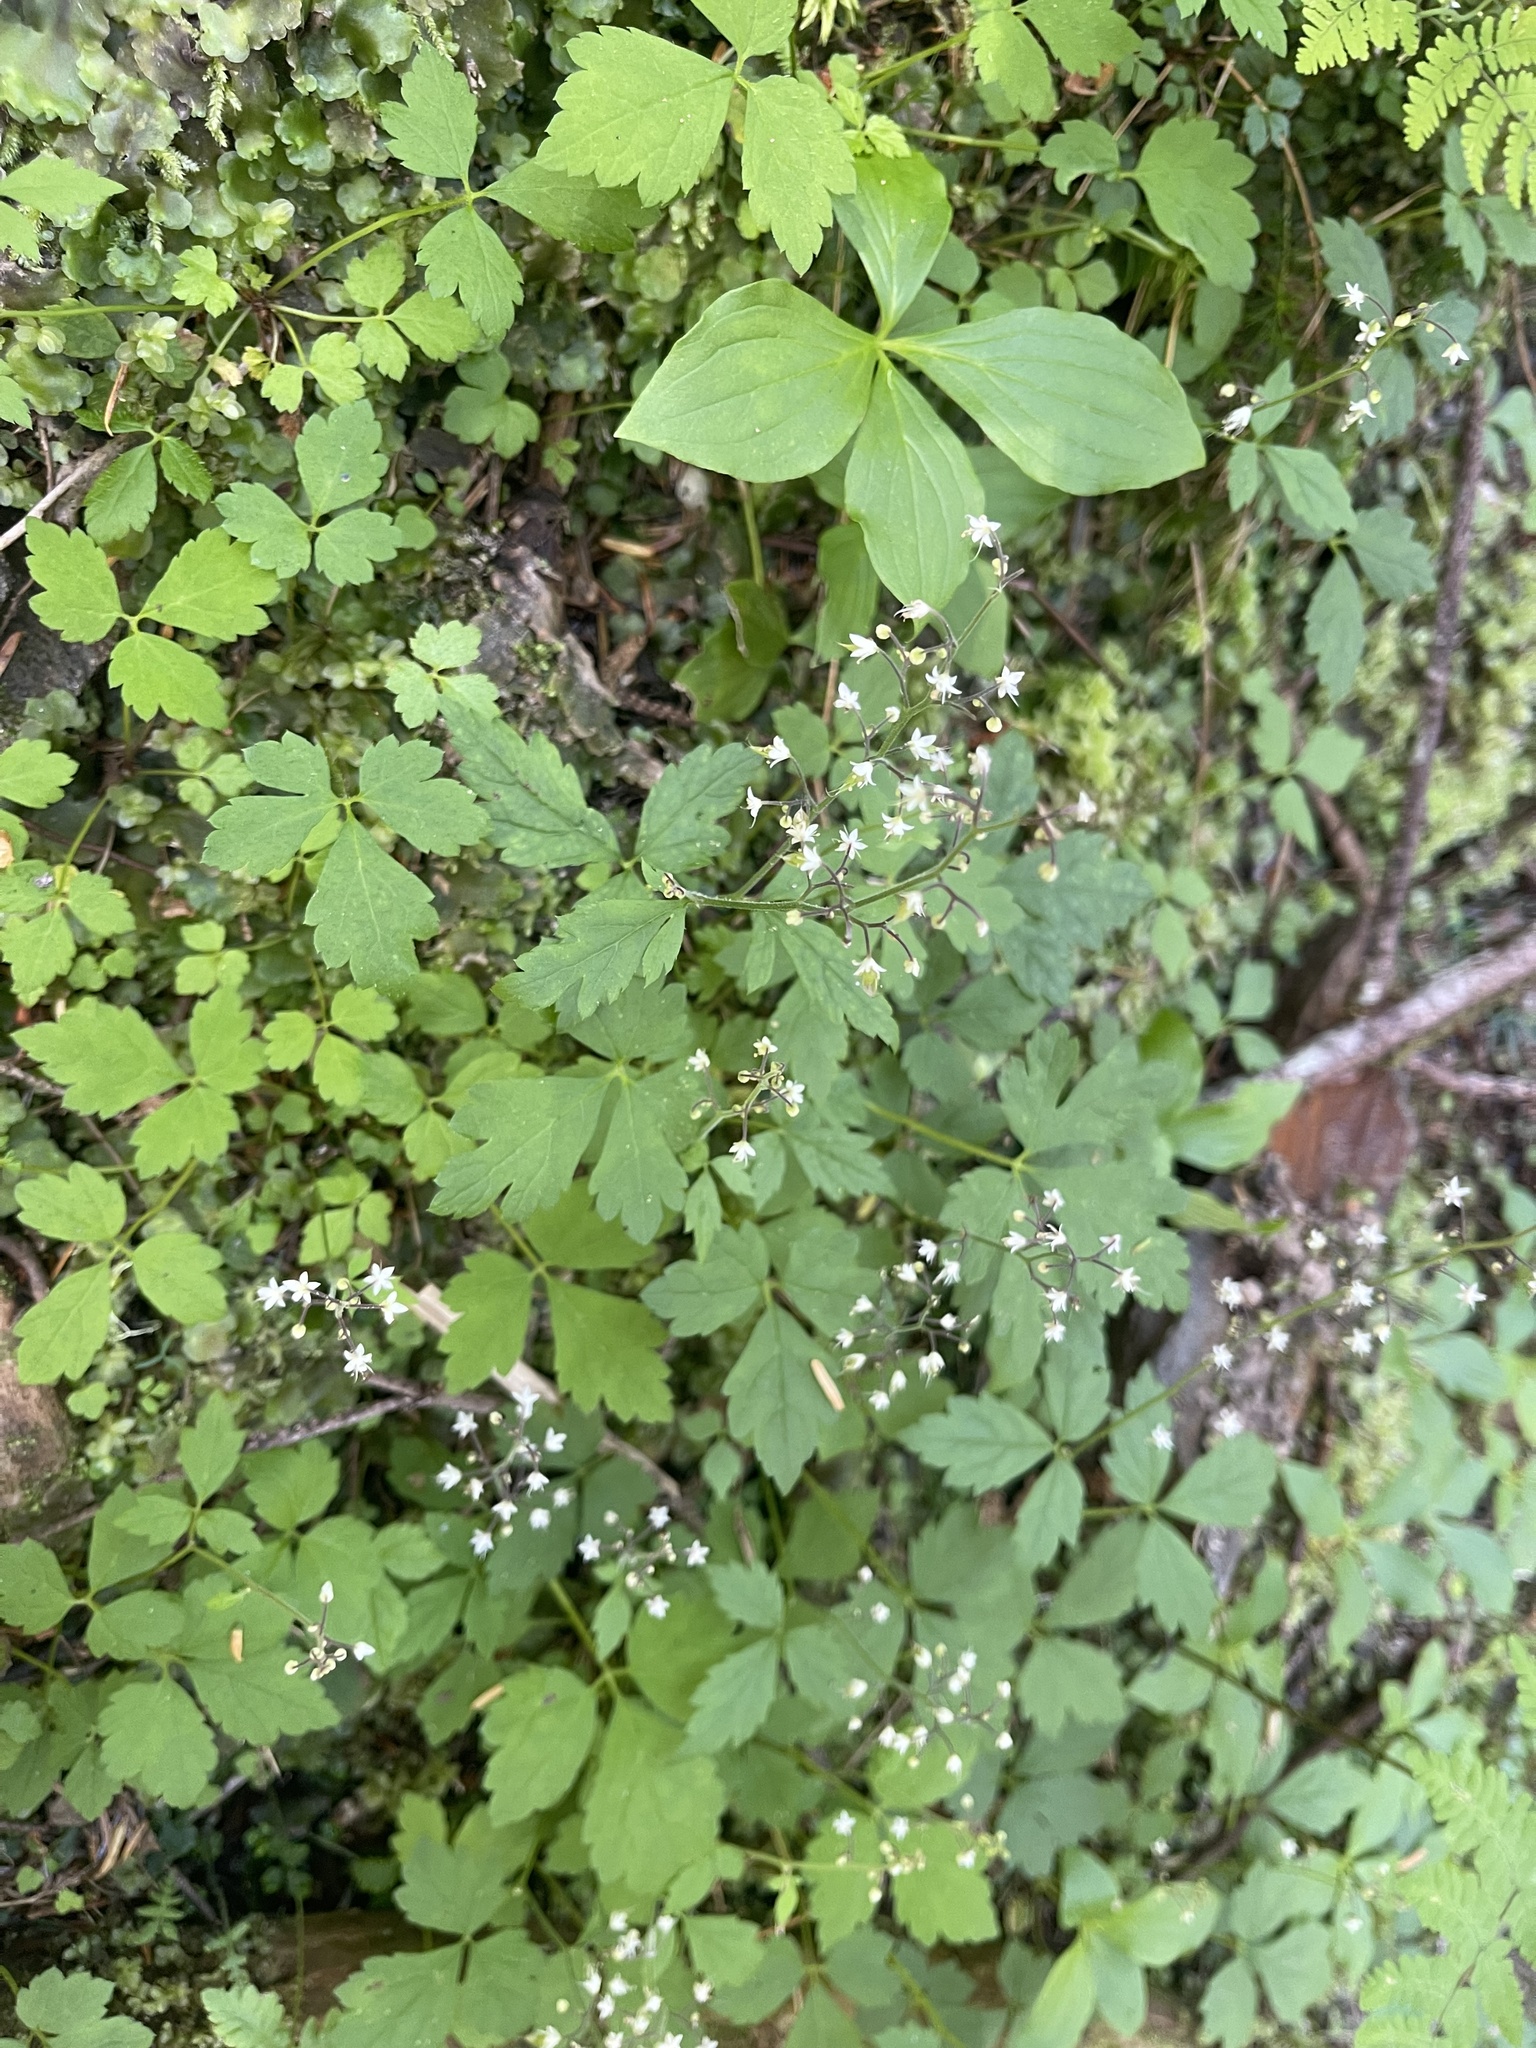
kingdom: Plantae
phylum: Tracheophyta
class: Magnoliopsida
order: Saxifragales
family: Saxifragaceae
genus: Tiarella
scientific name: Tiarella trifoliata
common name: Sugar-scoop
